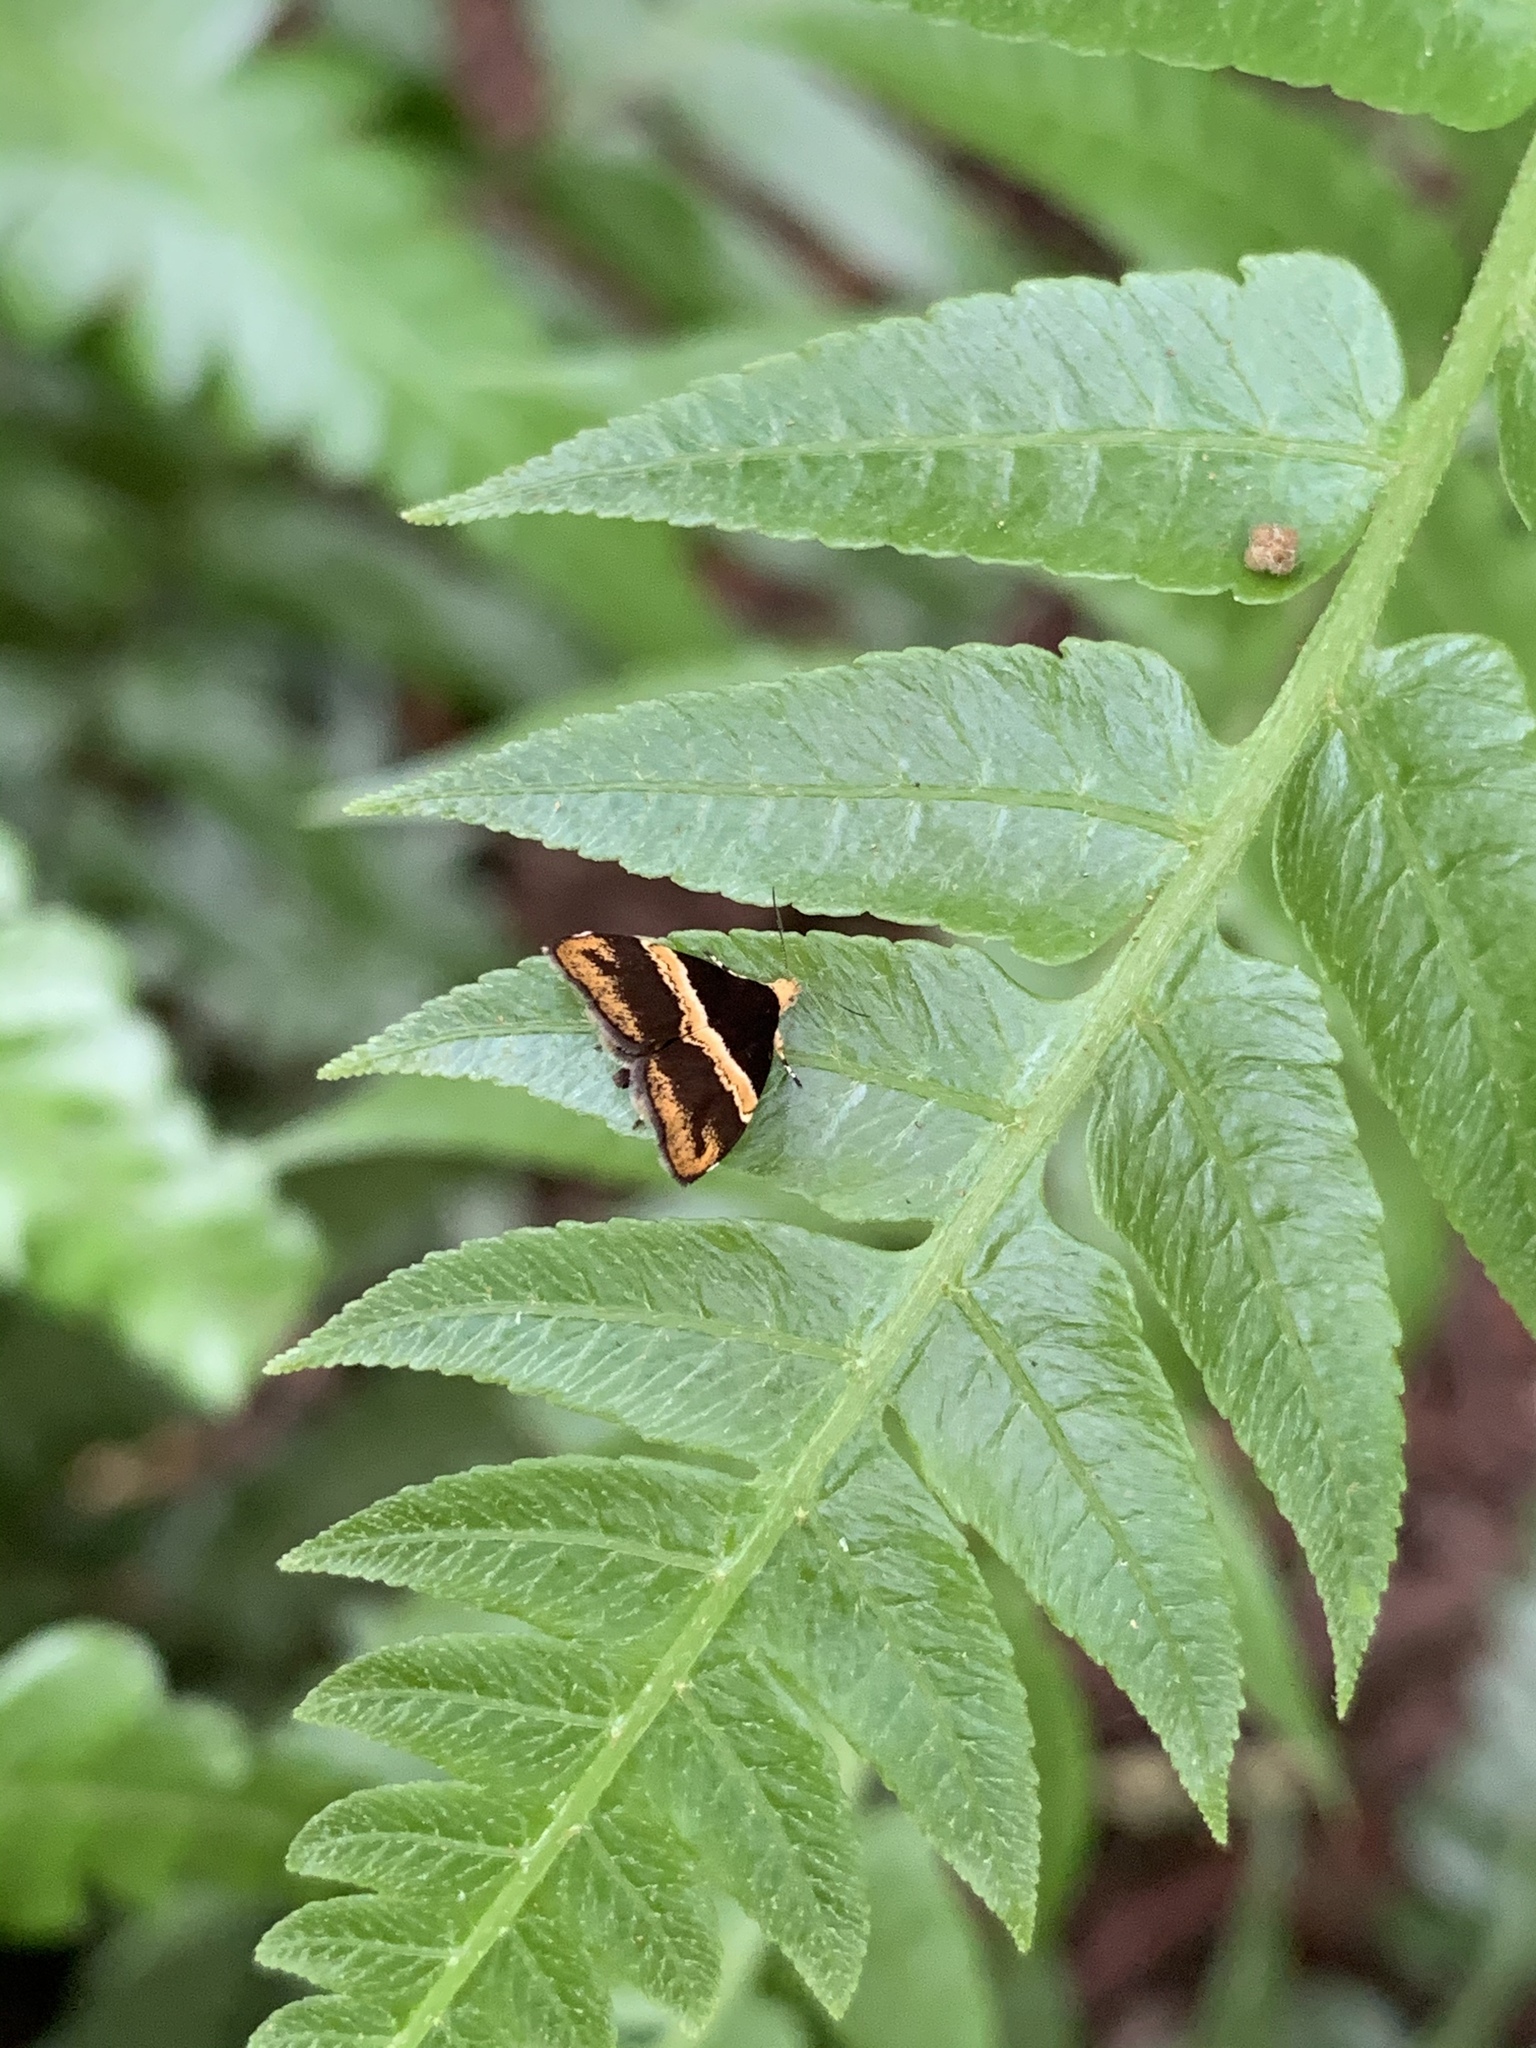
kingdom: Animalia
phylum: Arthropoda
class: Insecta
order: Lepidoptera
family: Choreutidae
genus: Choreutis
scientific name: Choreutis basalis
